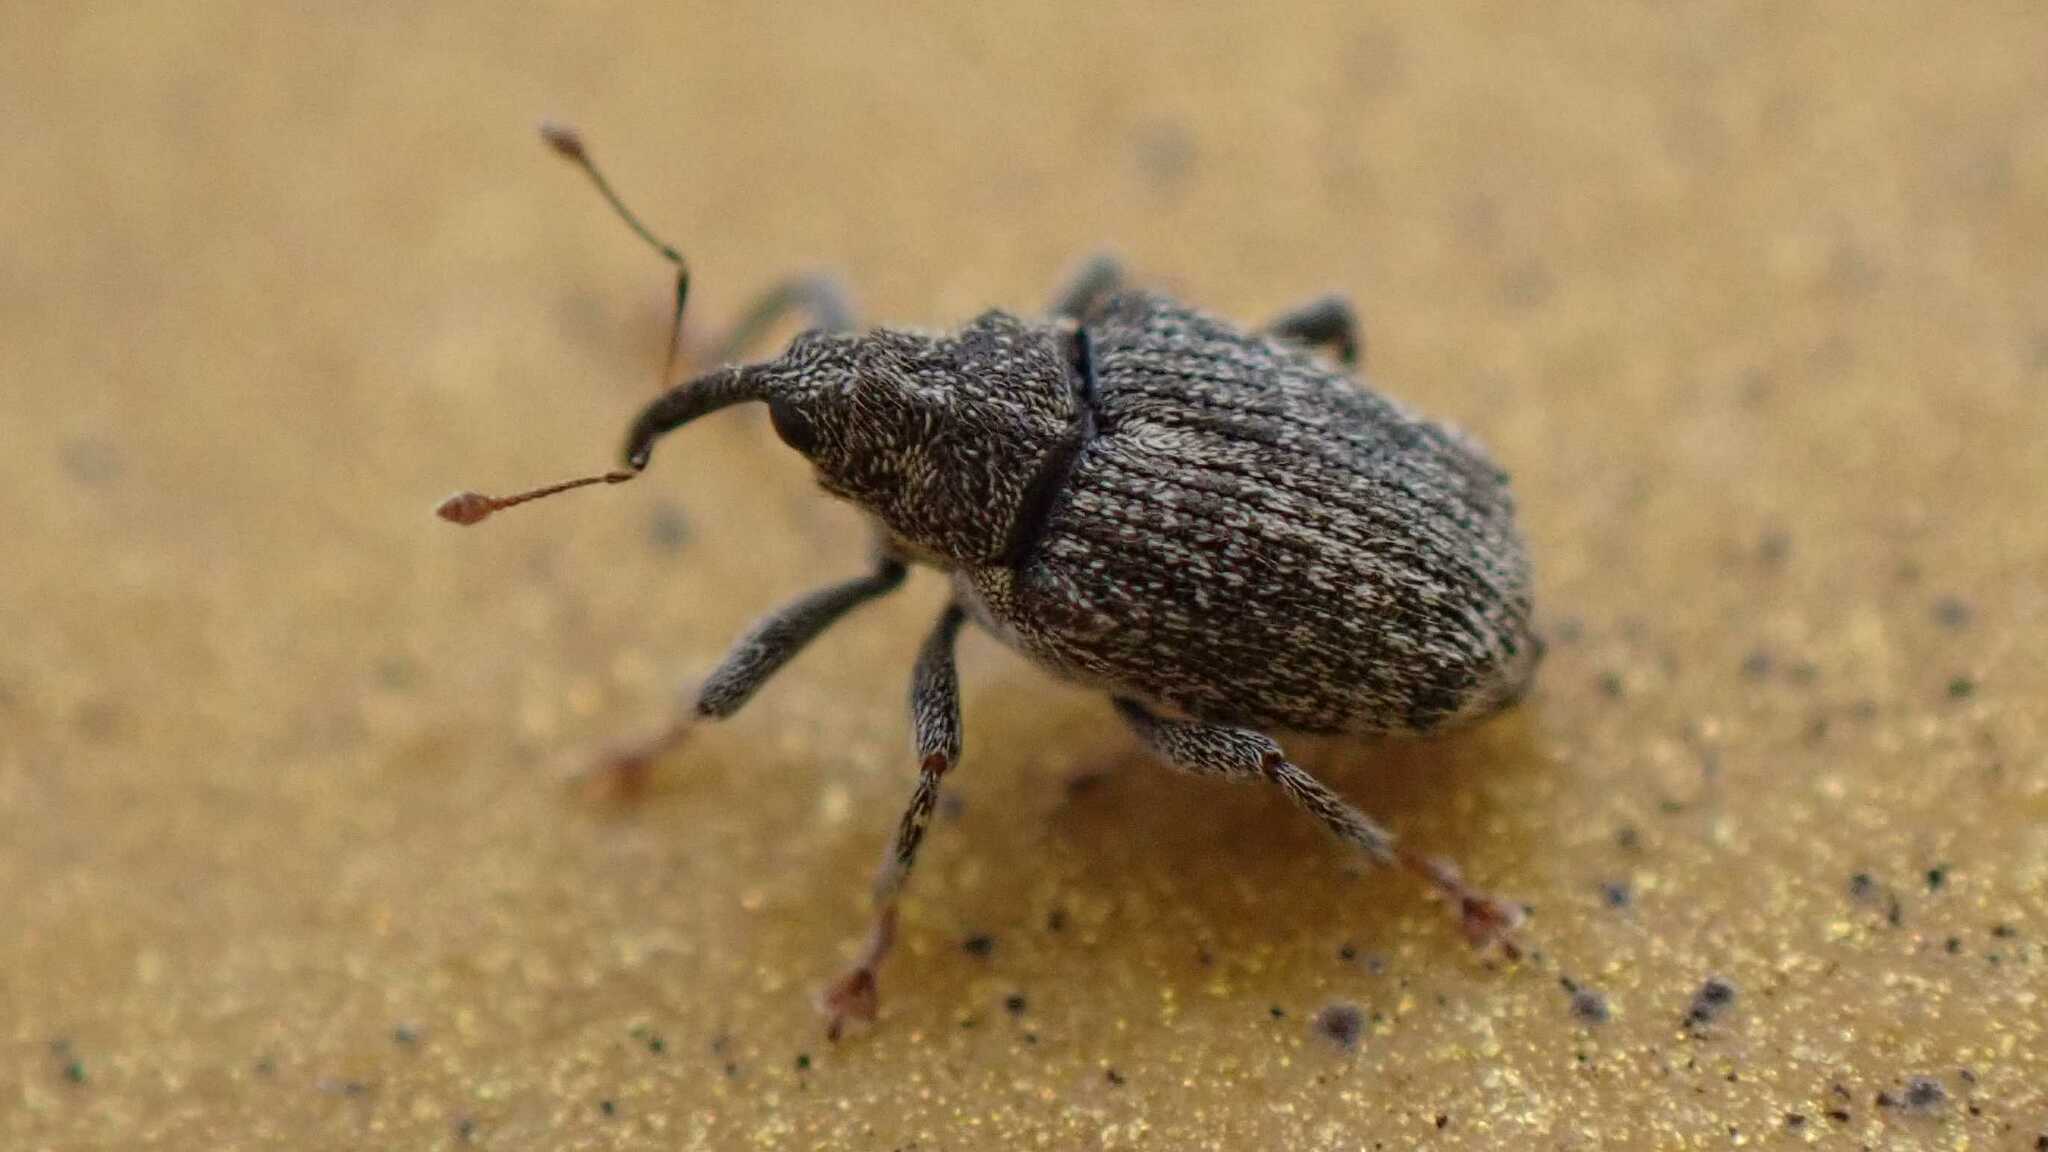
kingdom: Animalia
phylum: Arthropoda
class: Insecta
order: Coleoptera
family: Curculionidae
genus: Ceutorhynchus
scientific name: Ceutorhynchus pallidactylus
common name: Cabbage stem weavil
